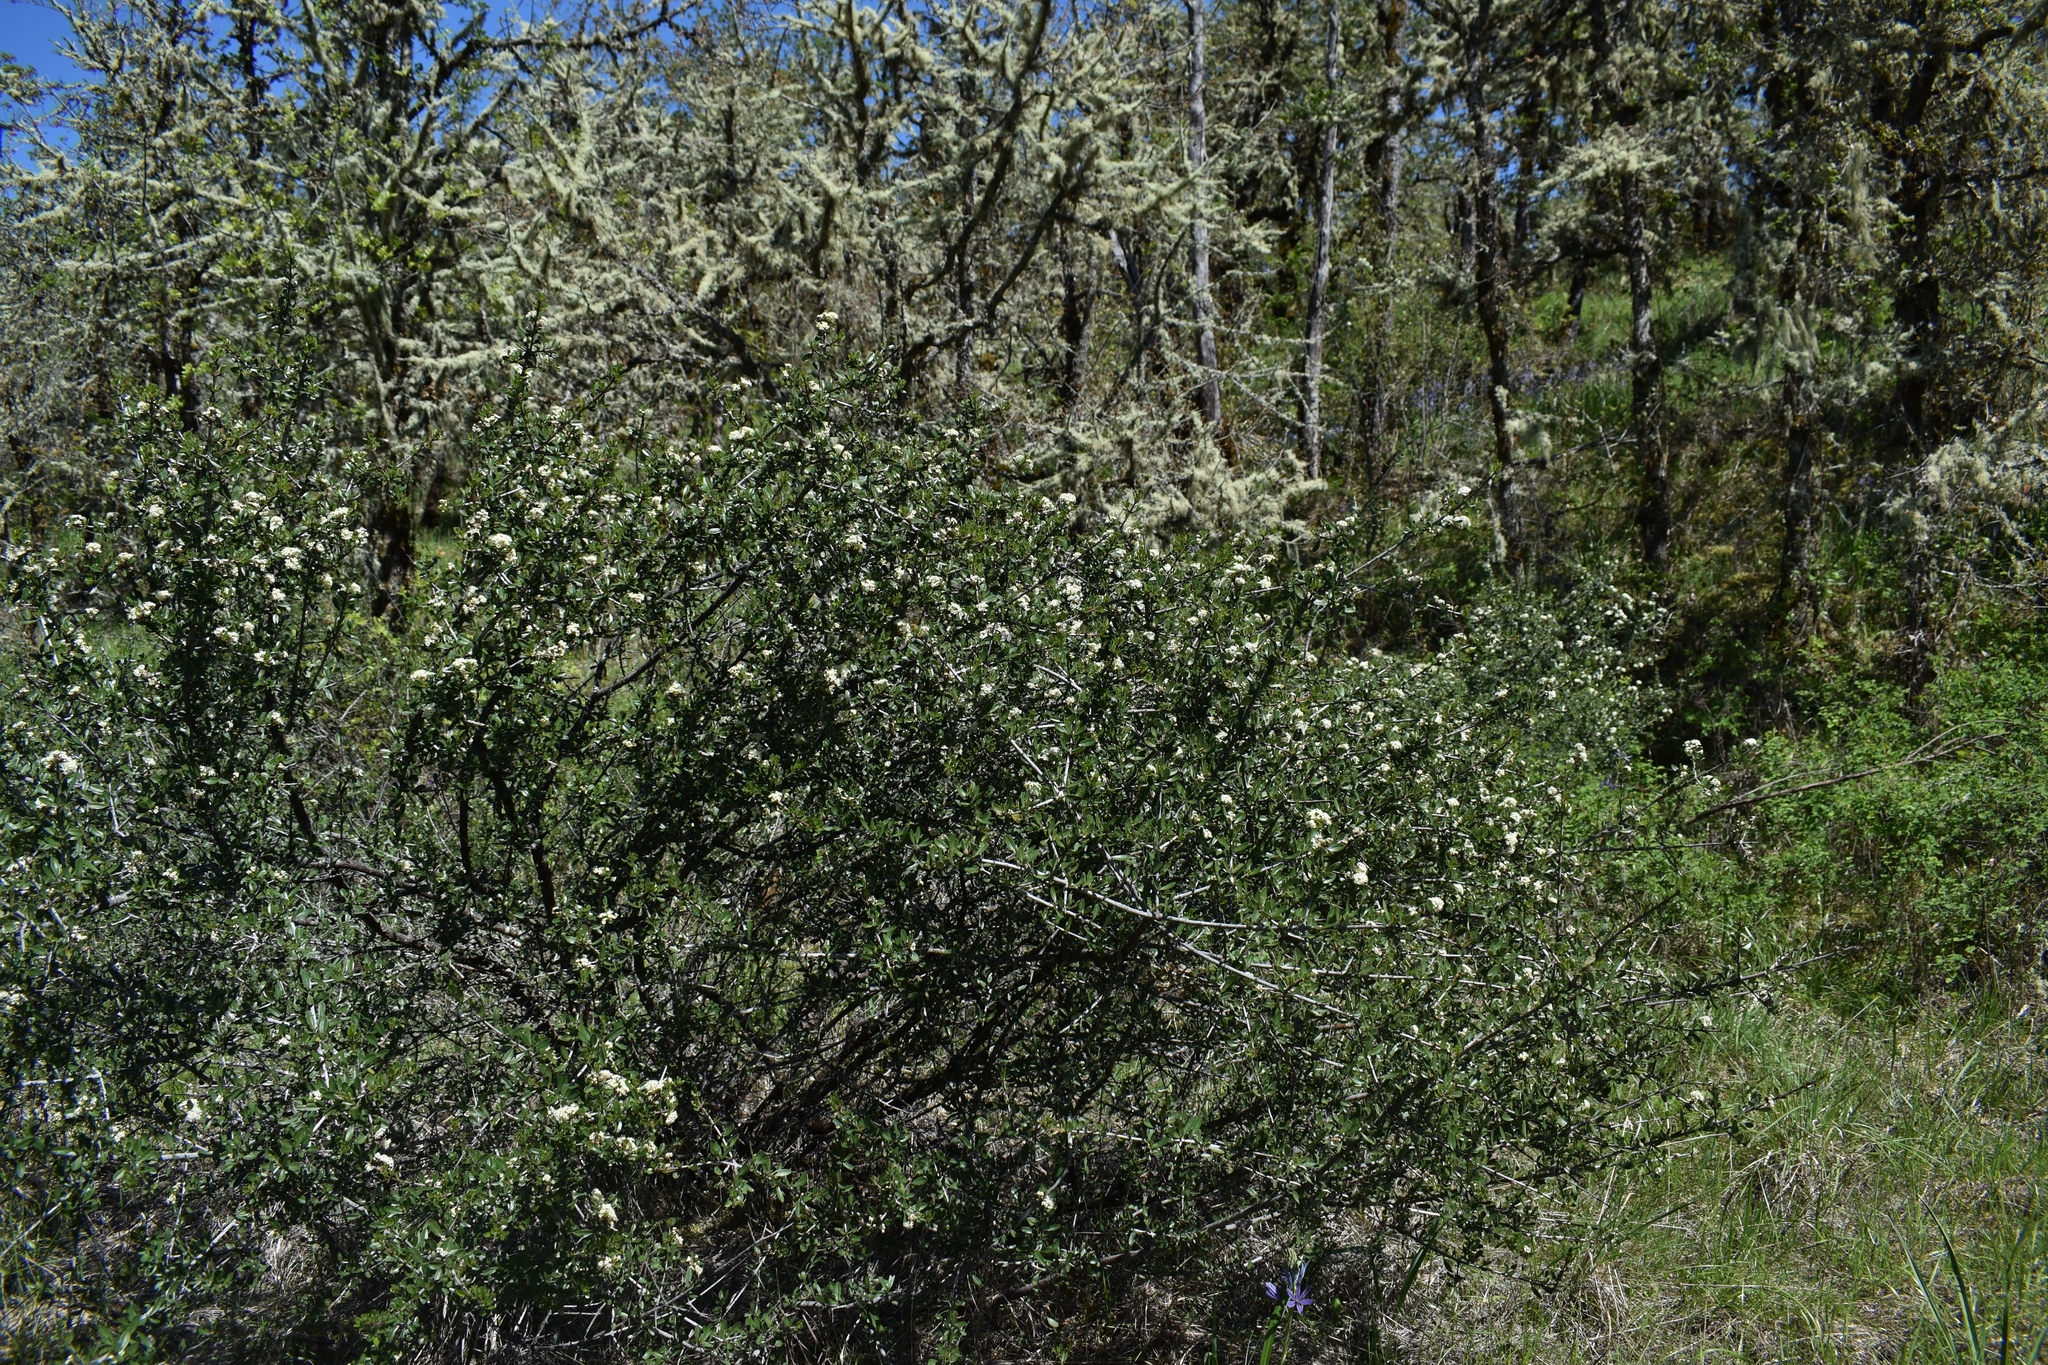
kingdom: Plantae
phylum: Tracheophyta
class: Magnoliopsida
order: Rosales
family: Rhamnaceae
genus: Ceanothus
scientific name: Ceanothus cuneatus
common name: Cuneate ceanothus
